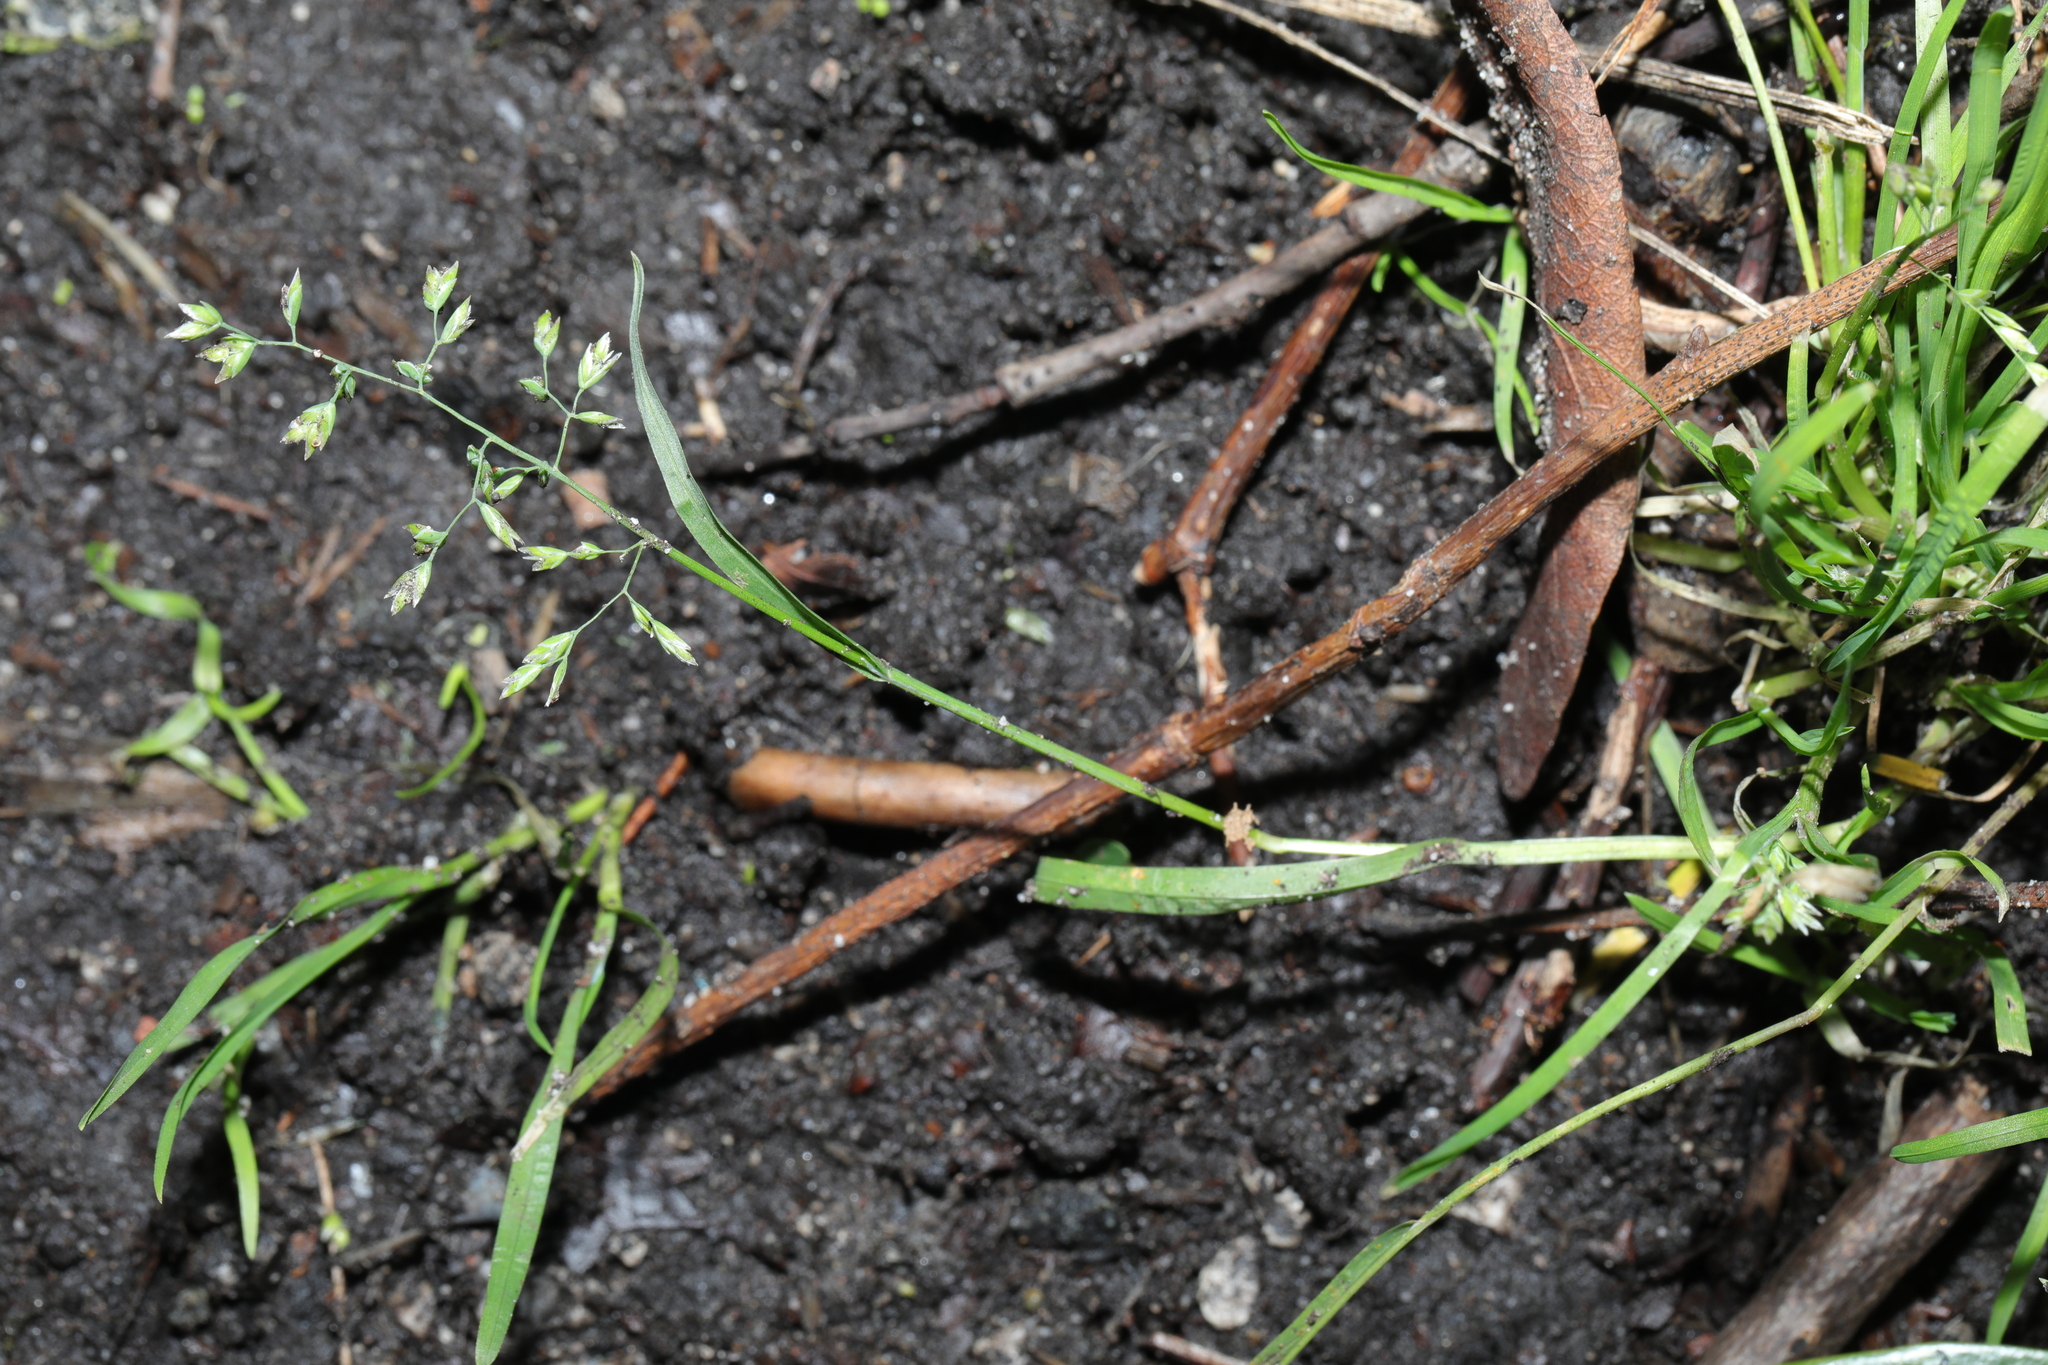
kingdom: Plantae
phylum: Tracheophyta
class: Liliopsida
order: Poales
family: Poaceae
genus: Poa
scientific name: Poa annua
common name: Annual bluegrass
